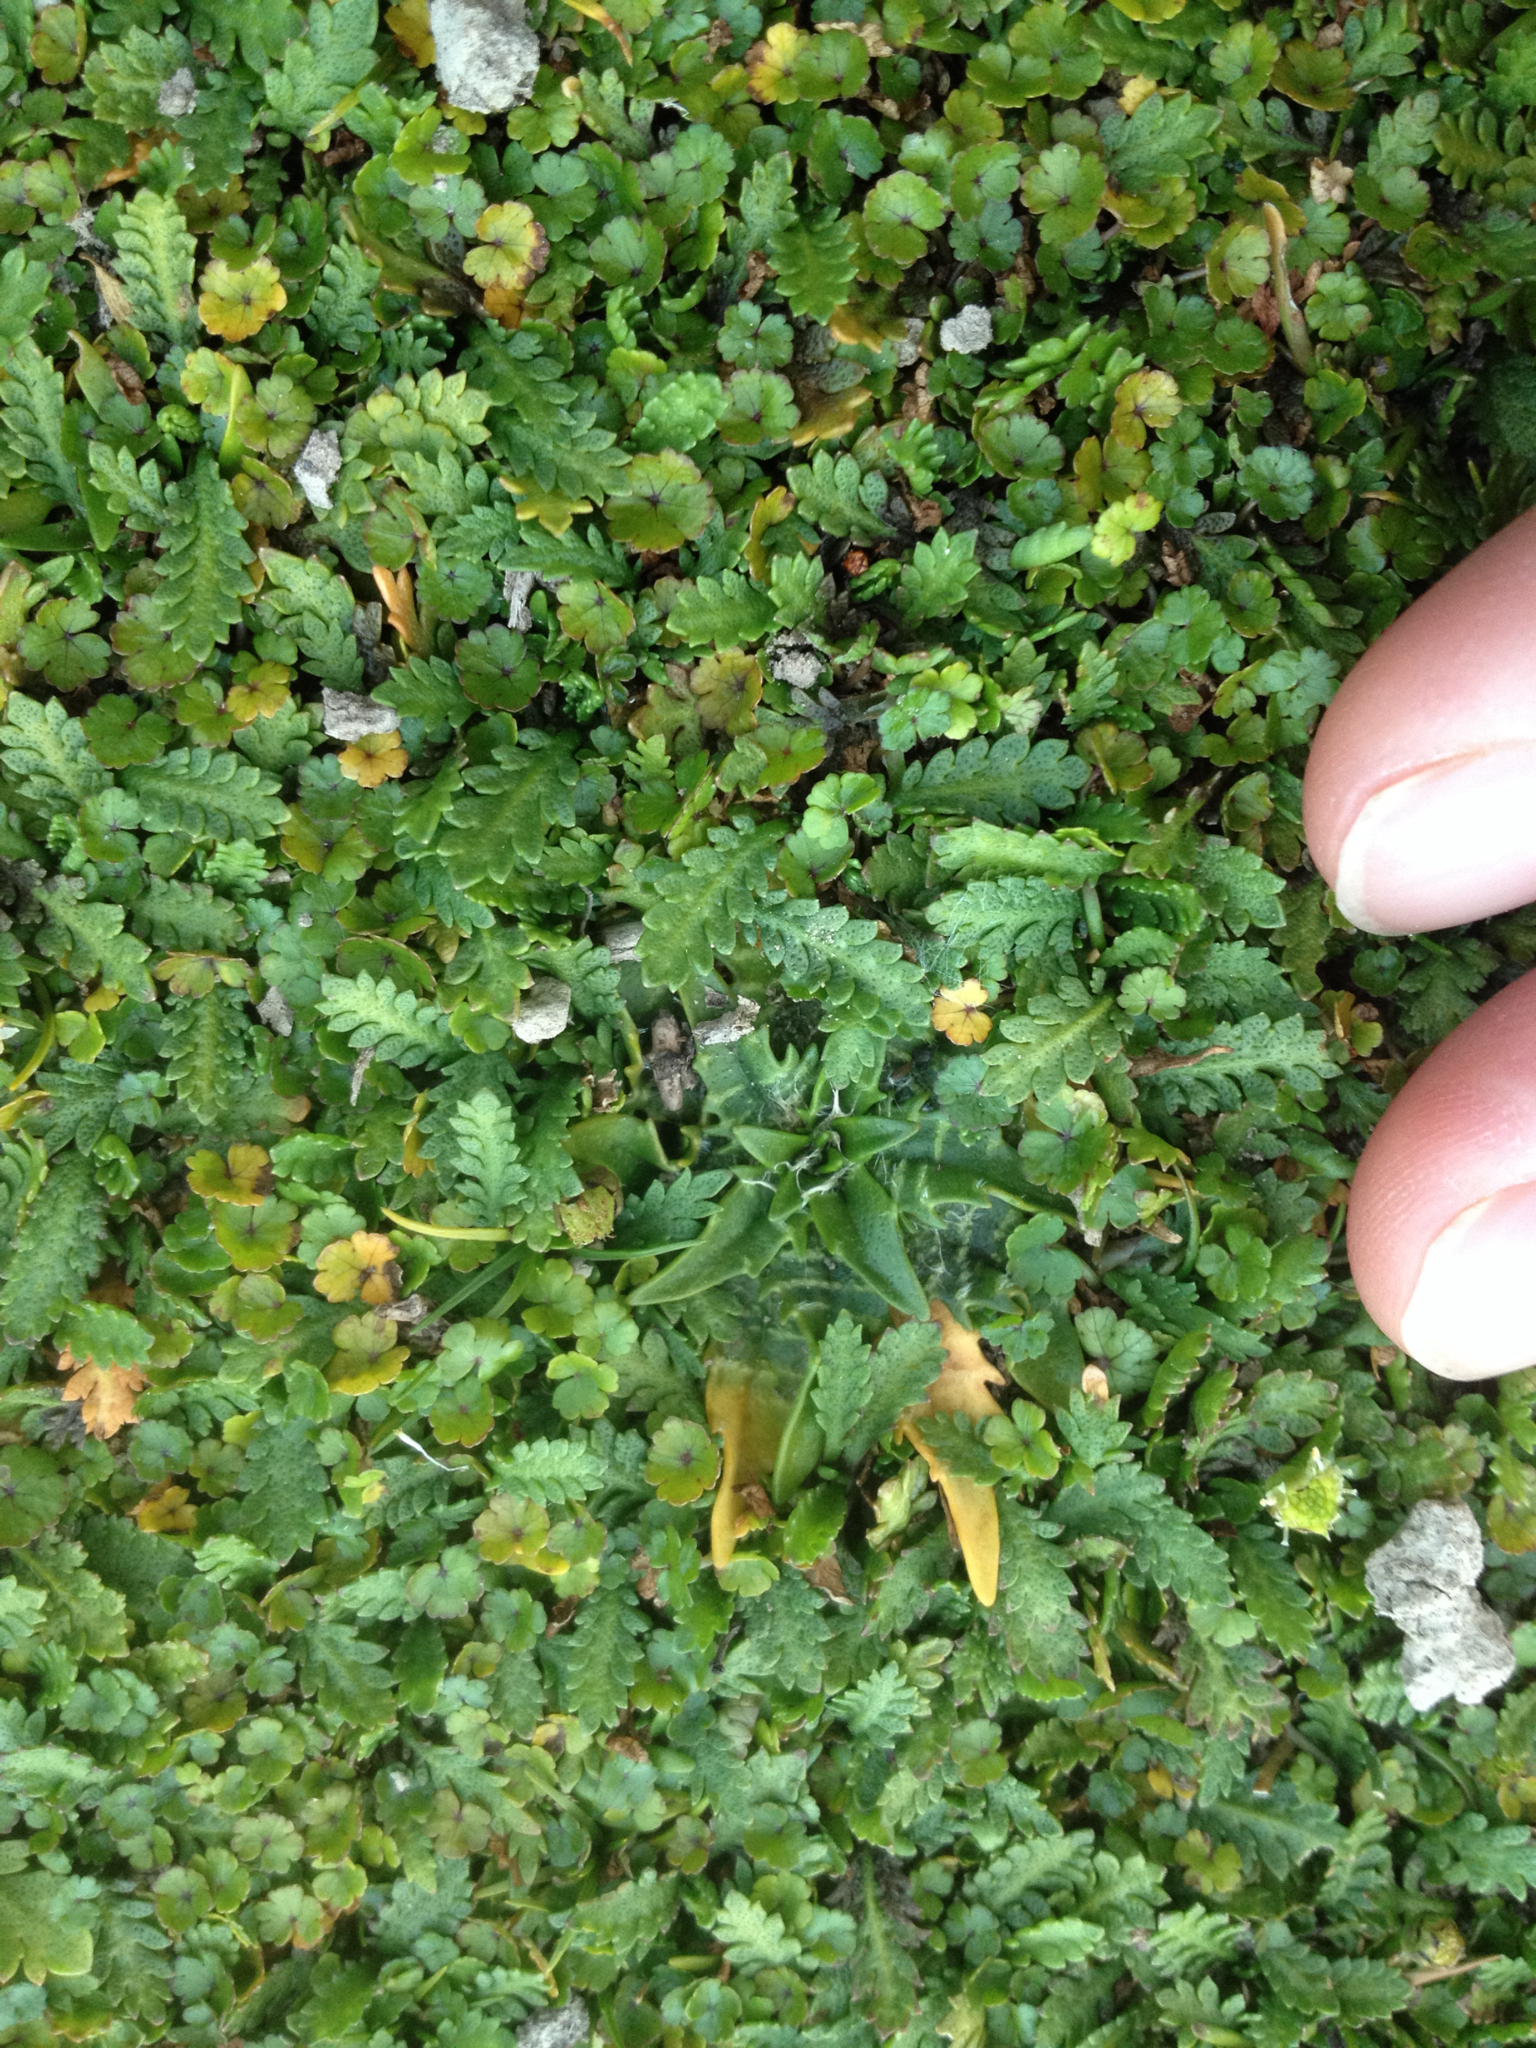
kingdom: Plantae
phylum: Tracheophyta
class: Magnoliopsida
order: Lamiales
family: Plantaginaceae
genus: Plantago
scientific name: Plantago triandra
